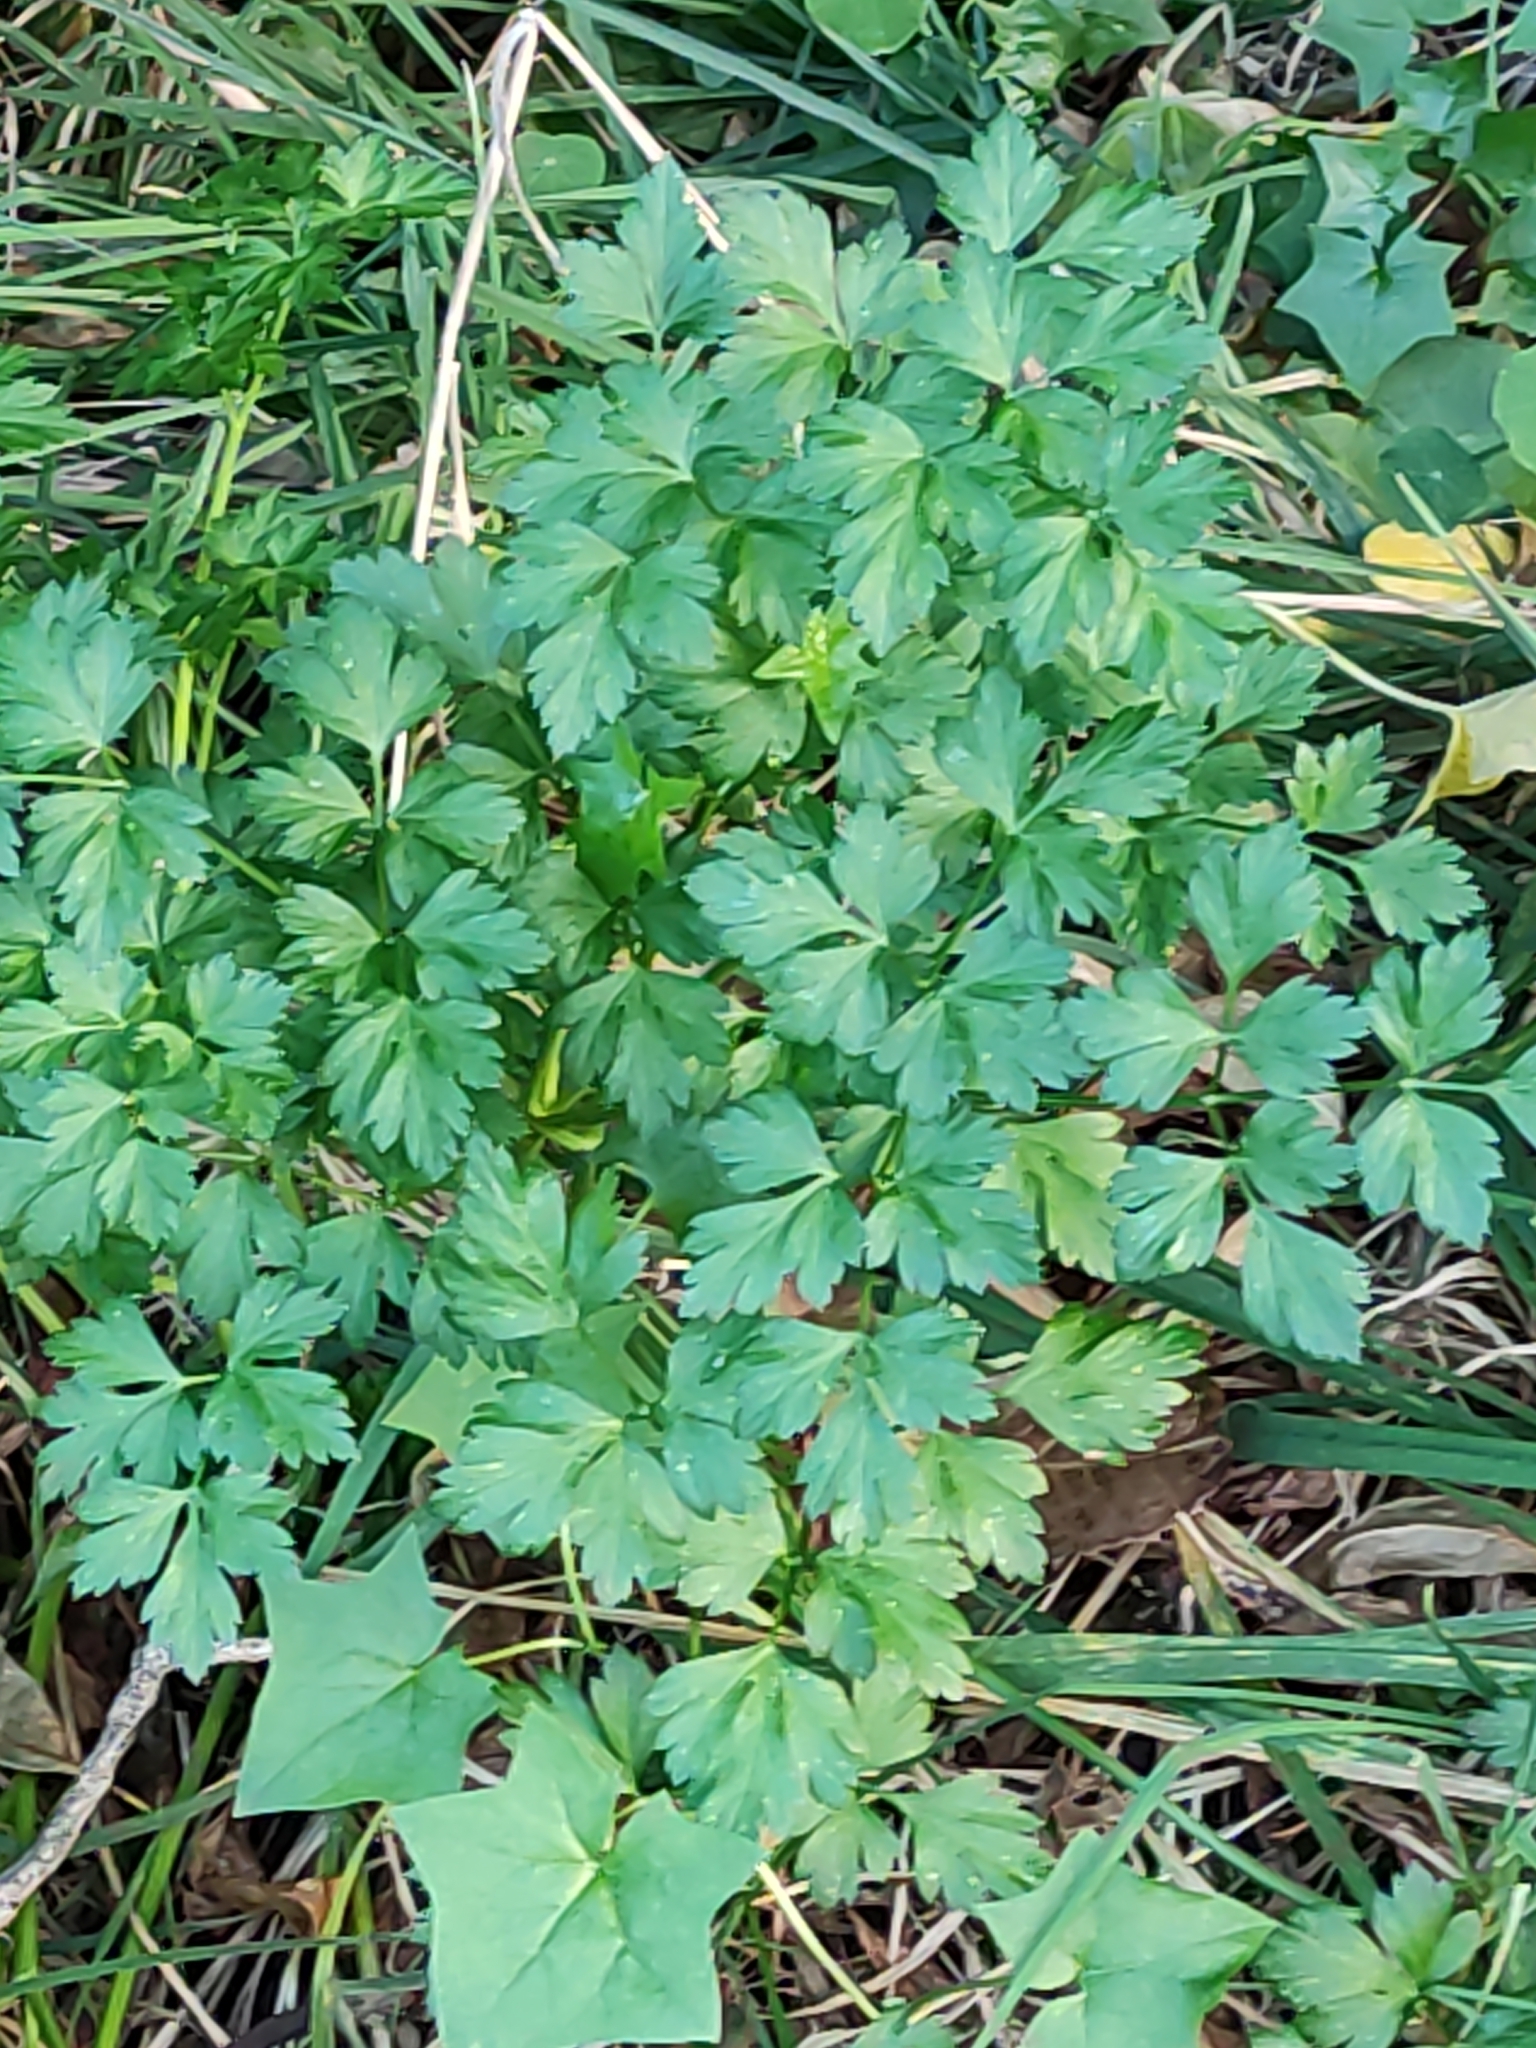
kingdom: Plantae
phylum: Tracheophyta
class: Magnoliopsida
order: Apiales
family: Apiaceae
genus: Petroselinum
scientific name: Petroselinum crispum
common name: Parsley
